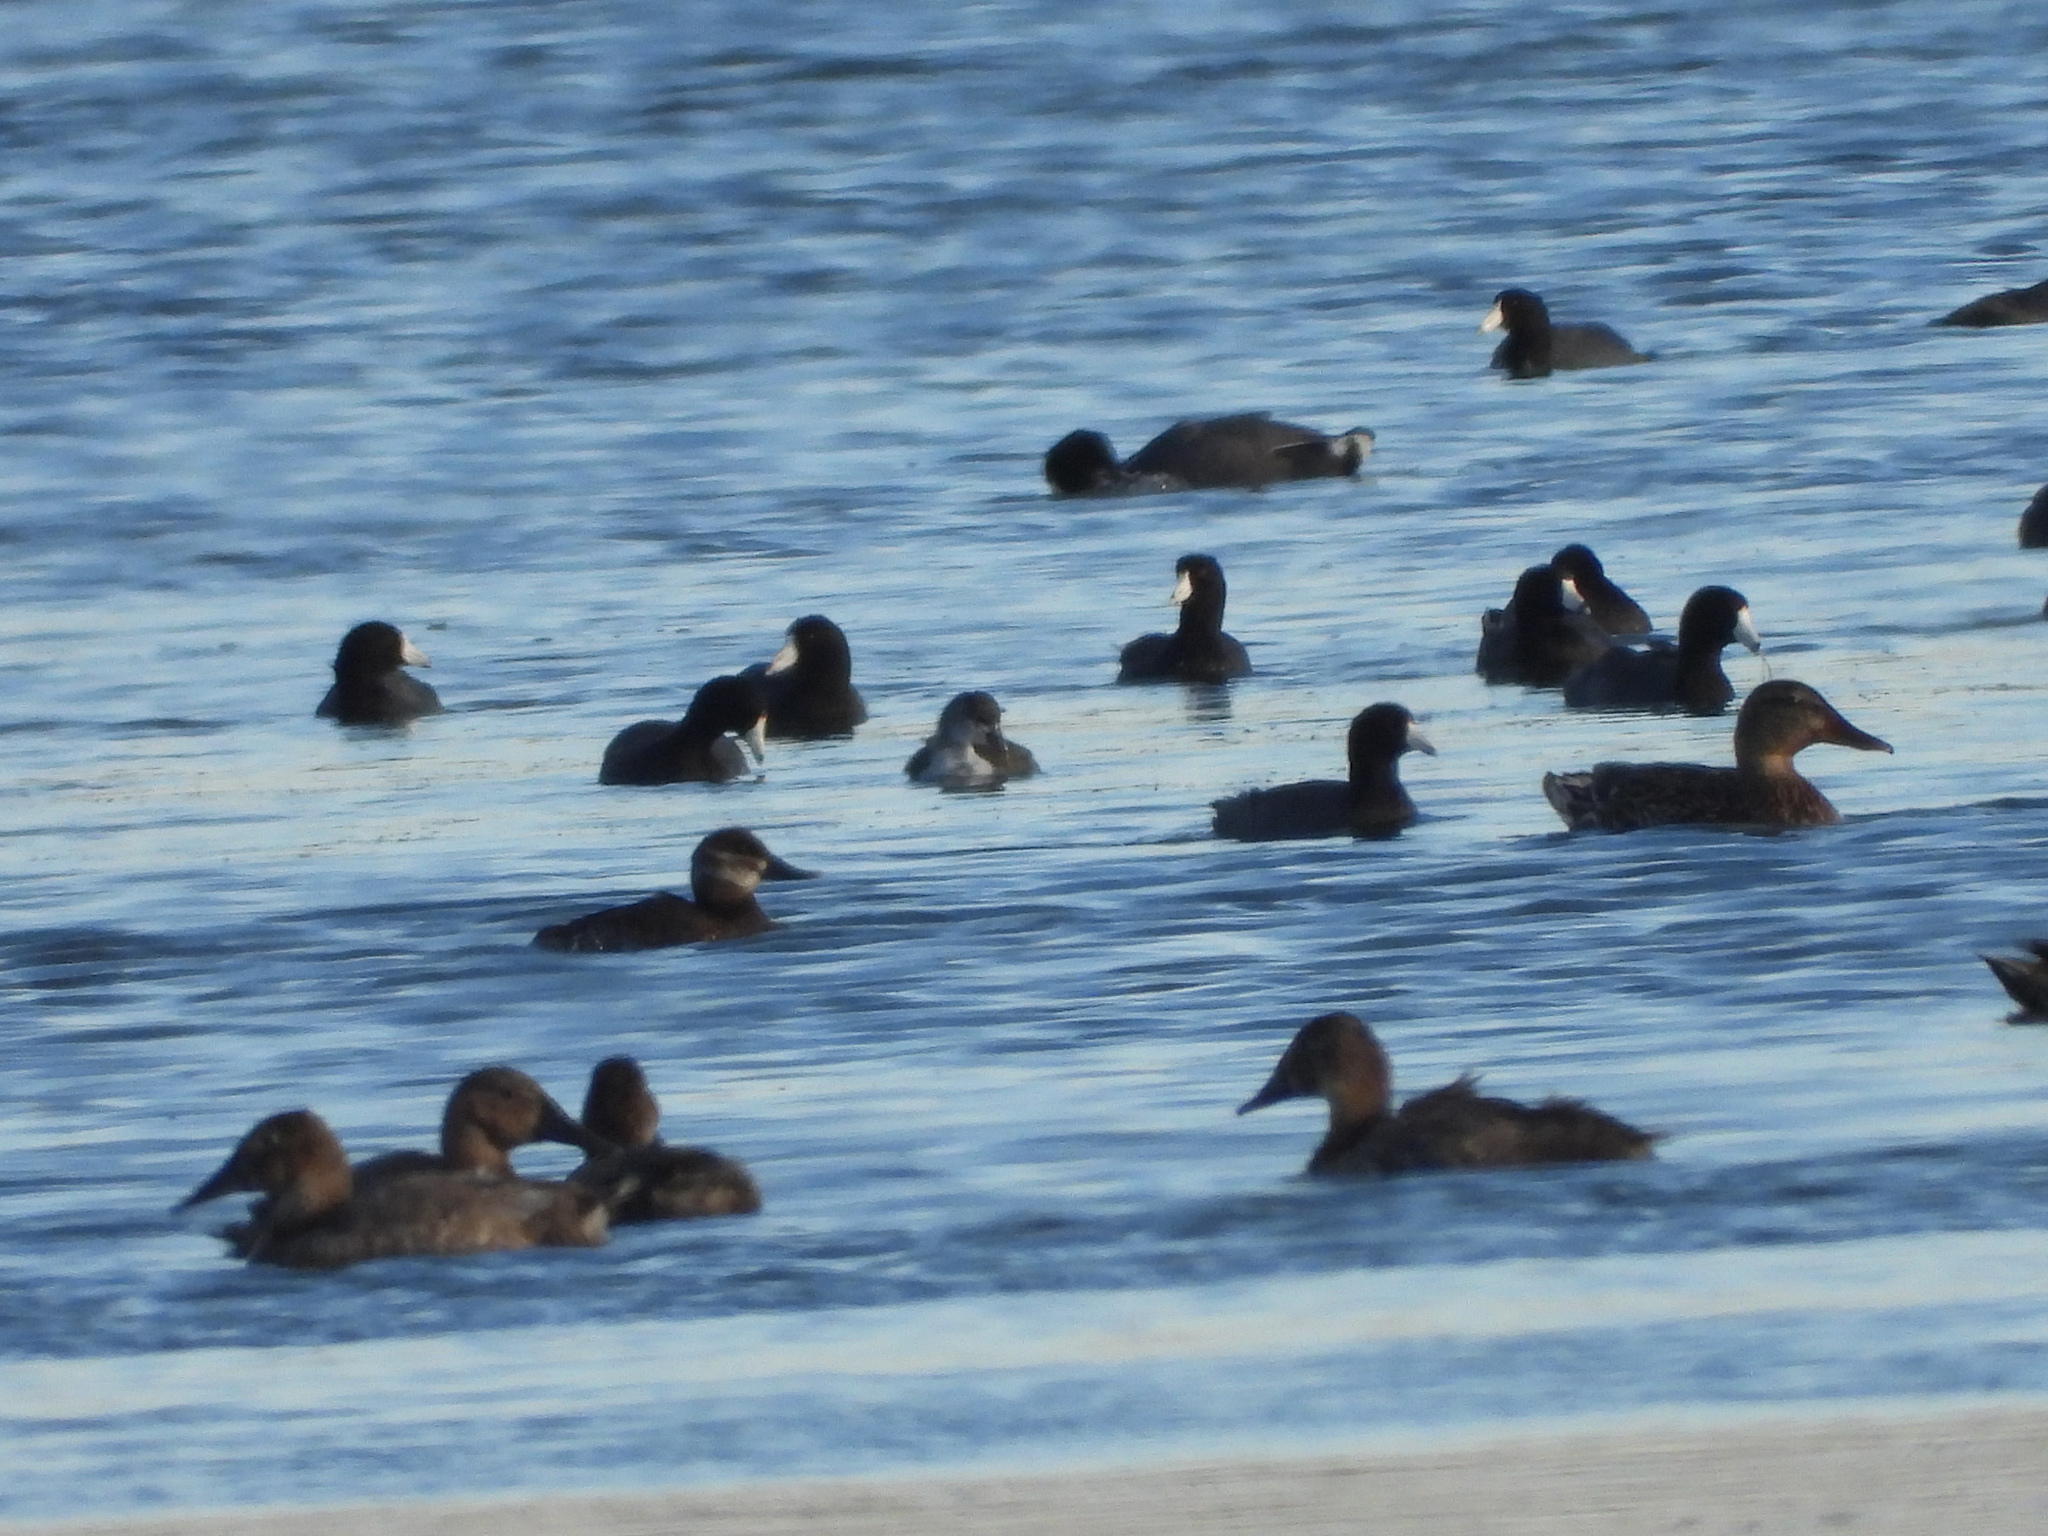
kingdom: Animalia
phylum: Chordata
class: Aves
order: Gruiformes
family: Rallidae
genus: Fulica
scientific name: Fulica americana
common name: American coot
